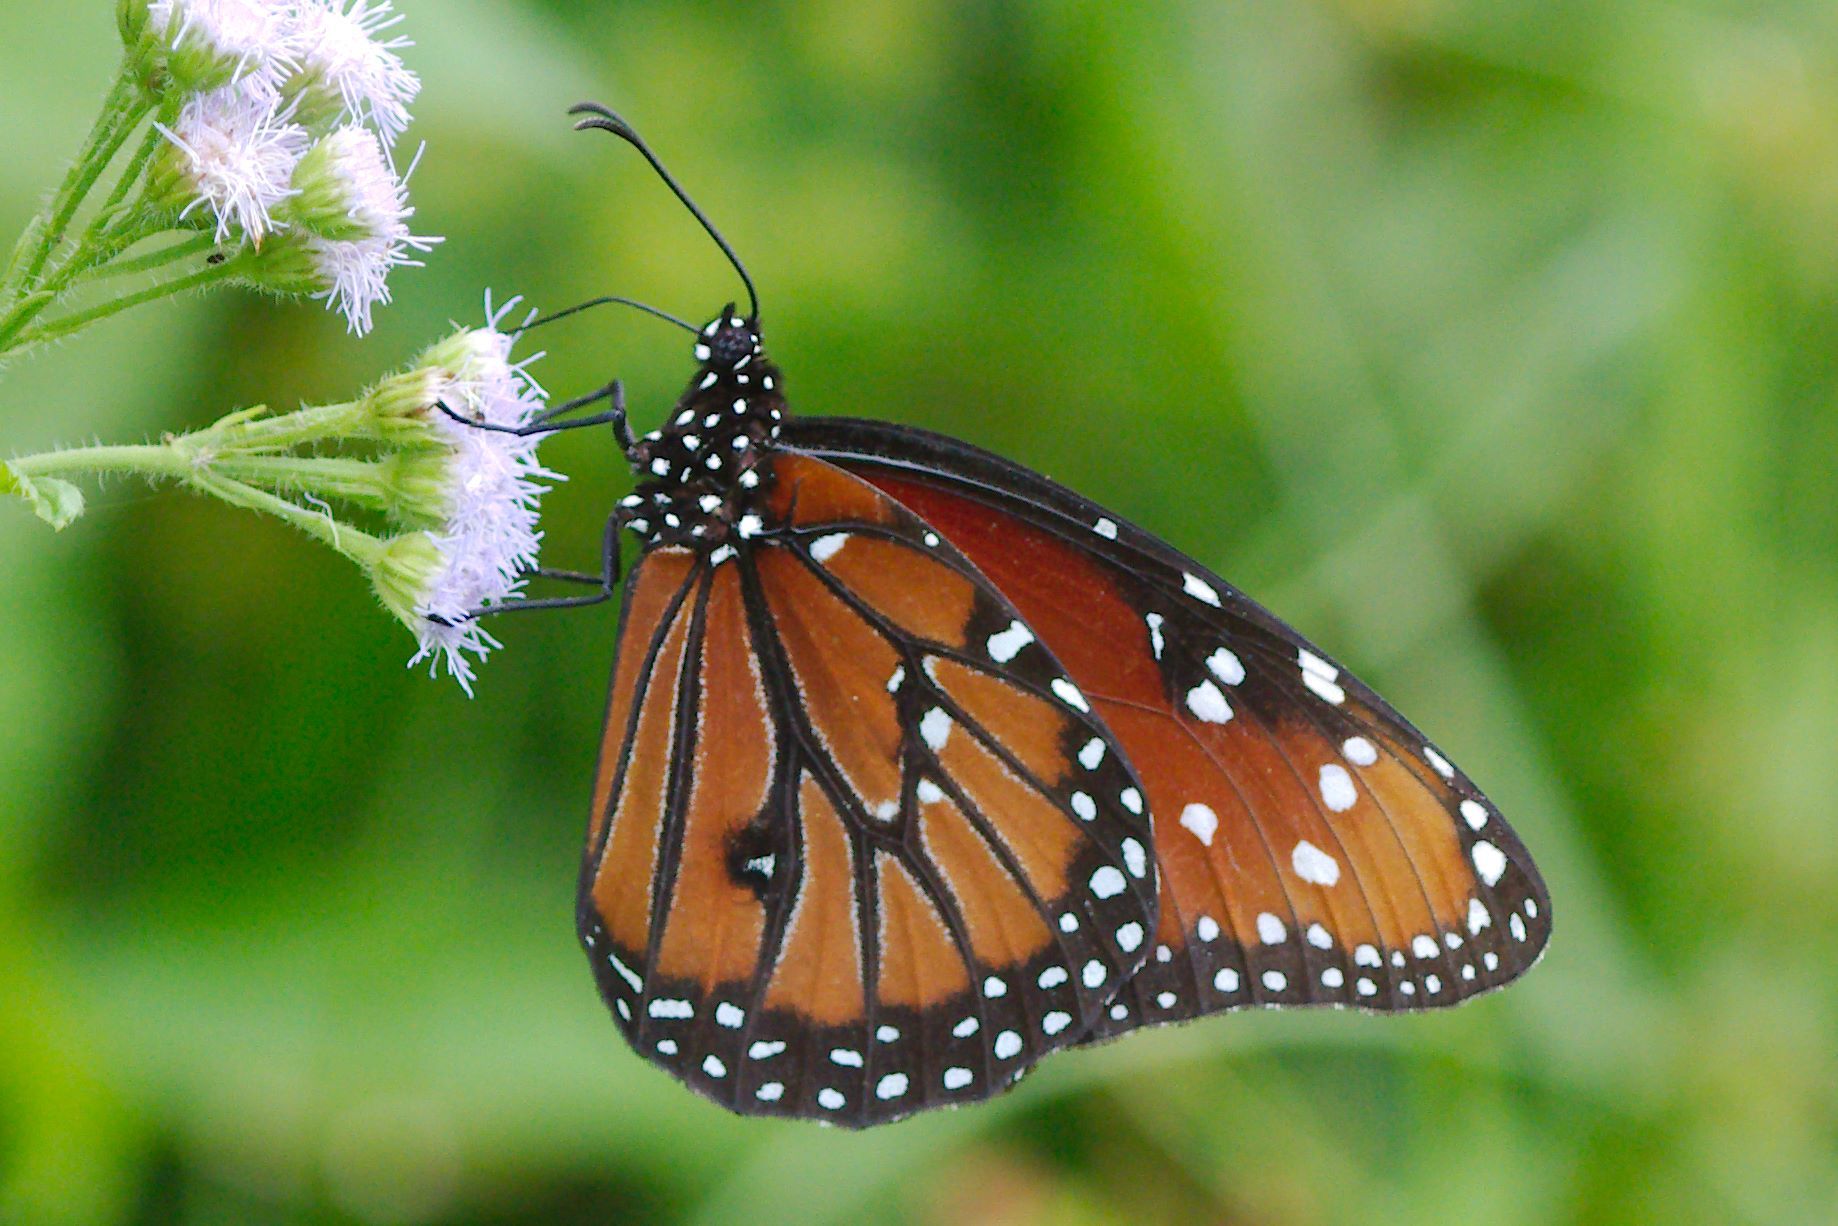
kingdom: Animalia
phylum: Arthropoda
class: Insecta
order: Lepidoptera
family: Nymphalidae
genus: Danaus
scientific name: Danaus gilippus
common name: Queen
